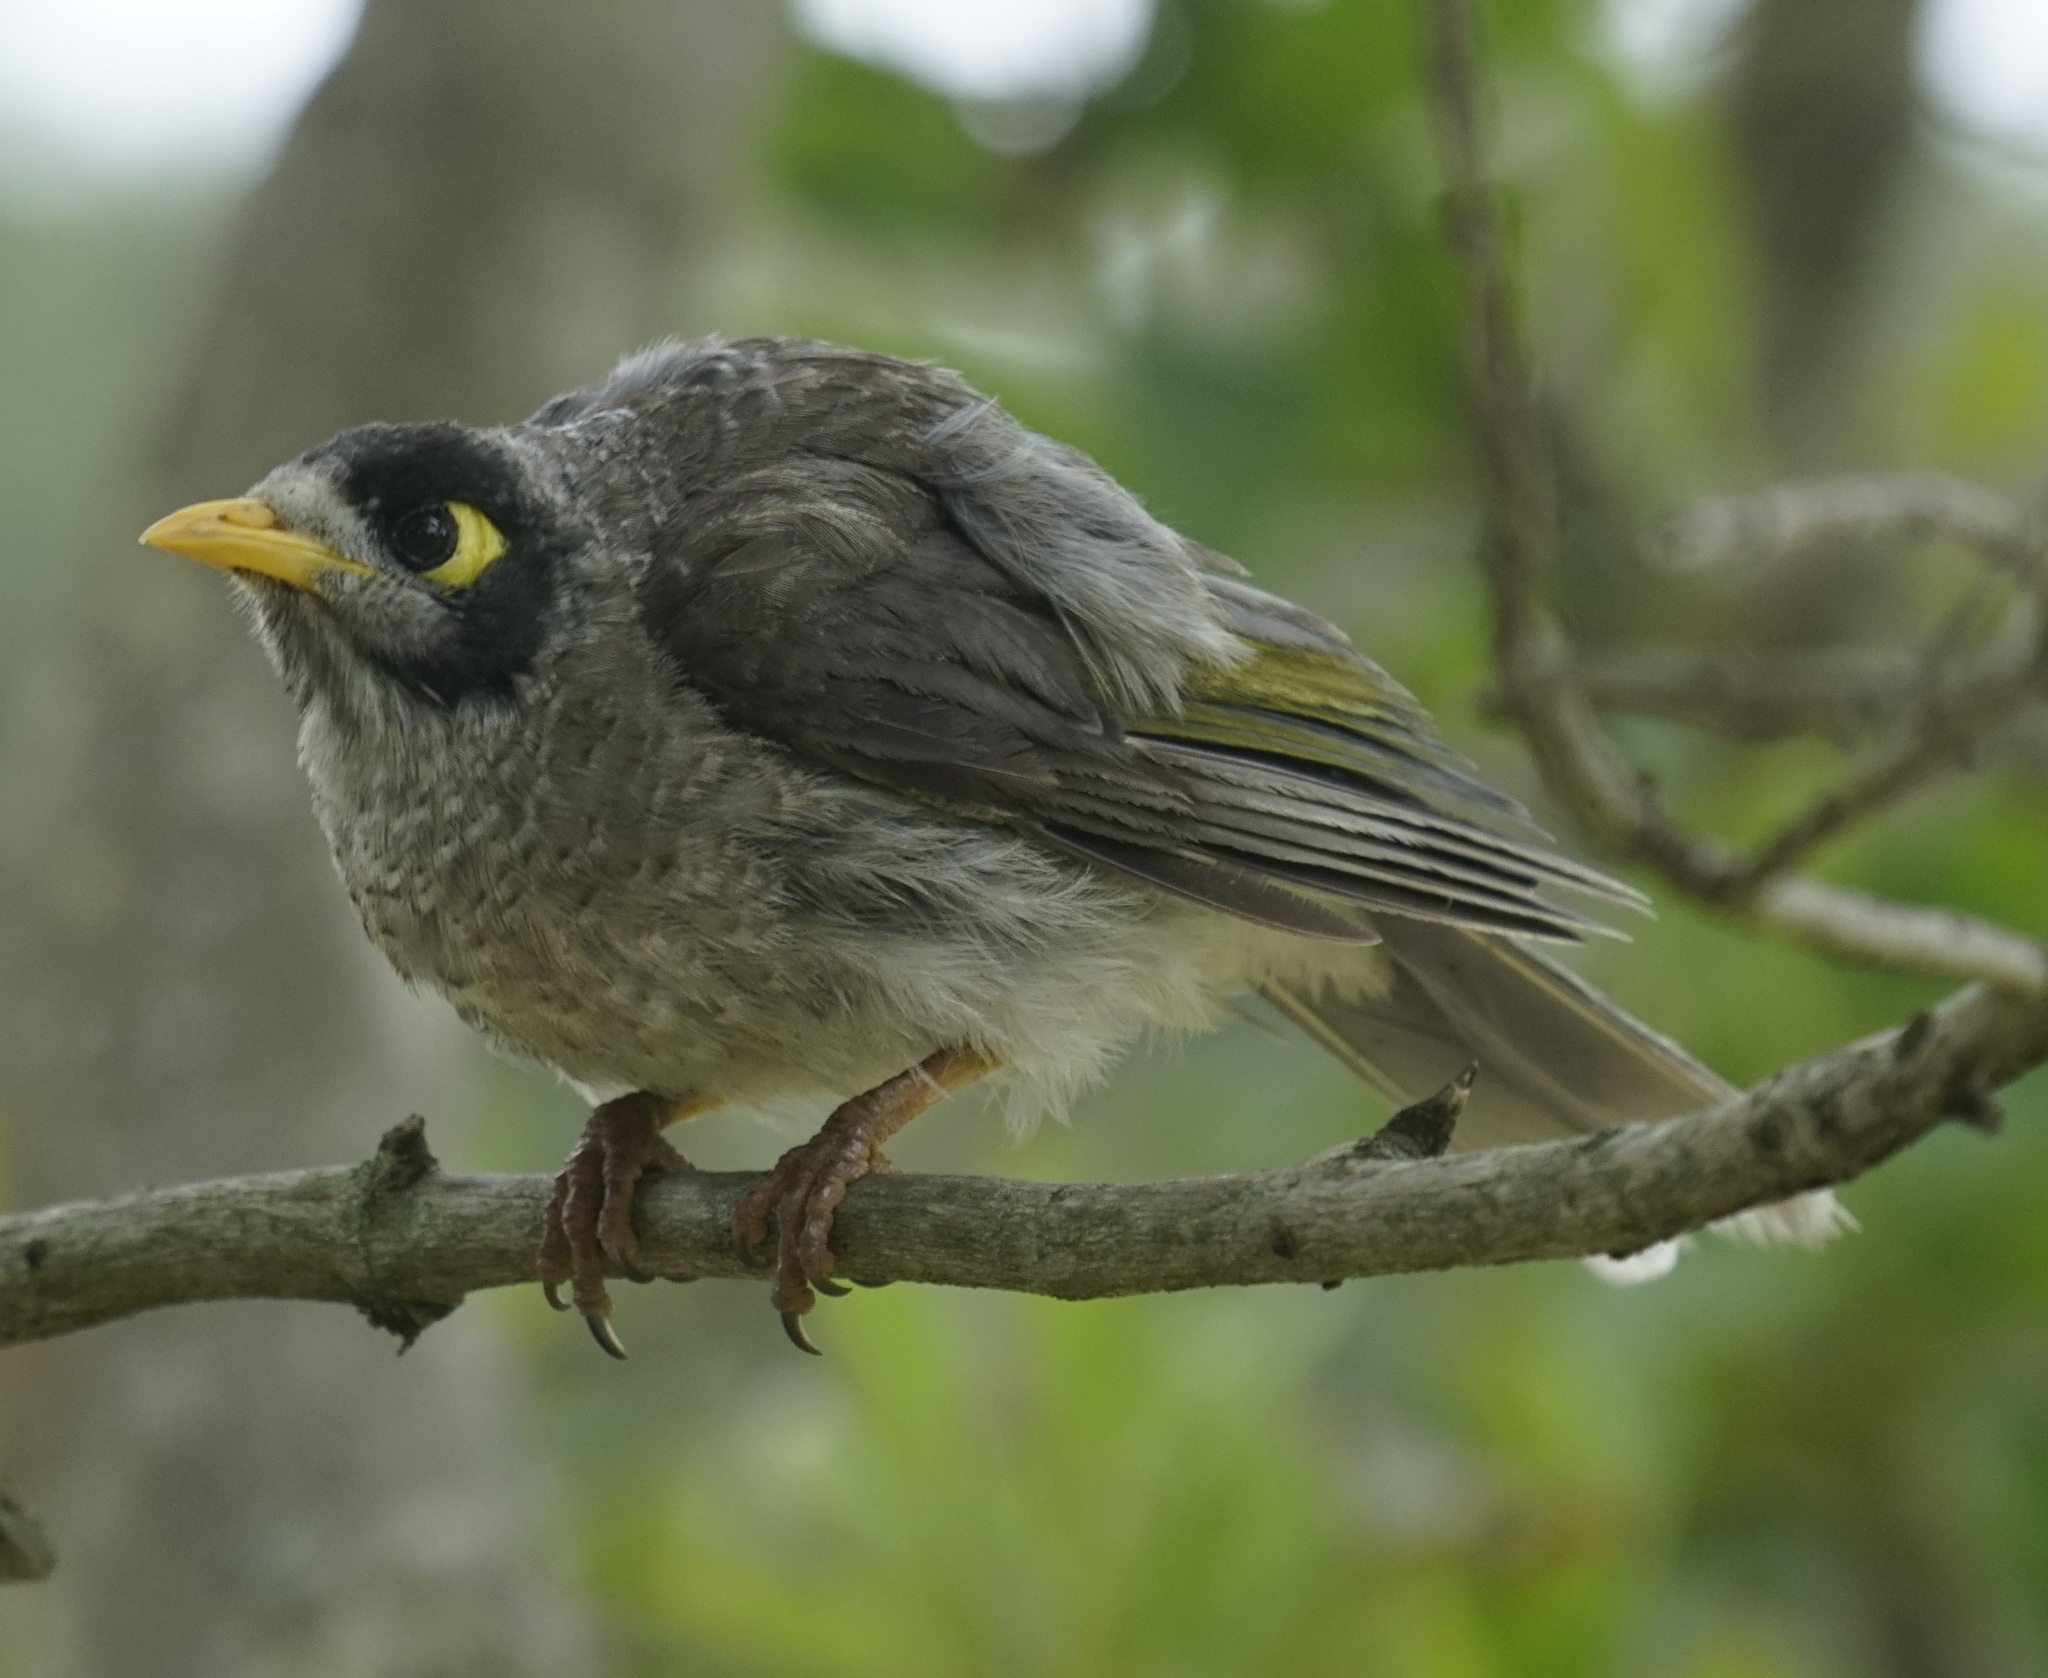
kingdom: Animalia
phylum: Chordata
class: Aves
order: Passeriformes
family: Meliphagidae
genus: Manorina
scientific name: Manorina melanocephala
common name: Noisy miner
